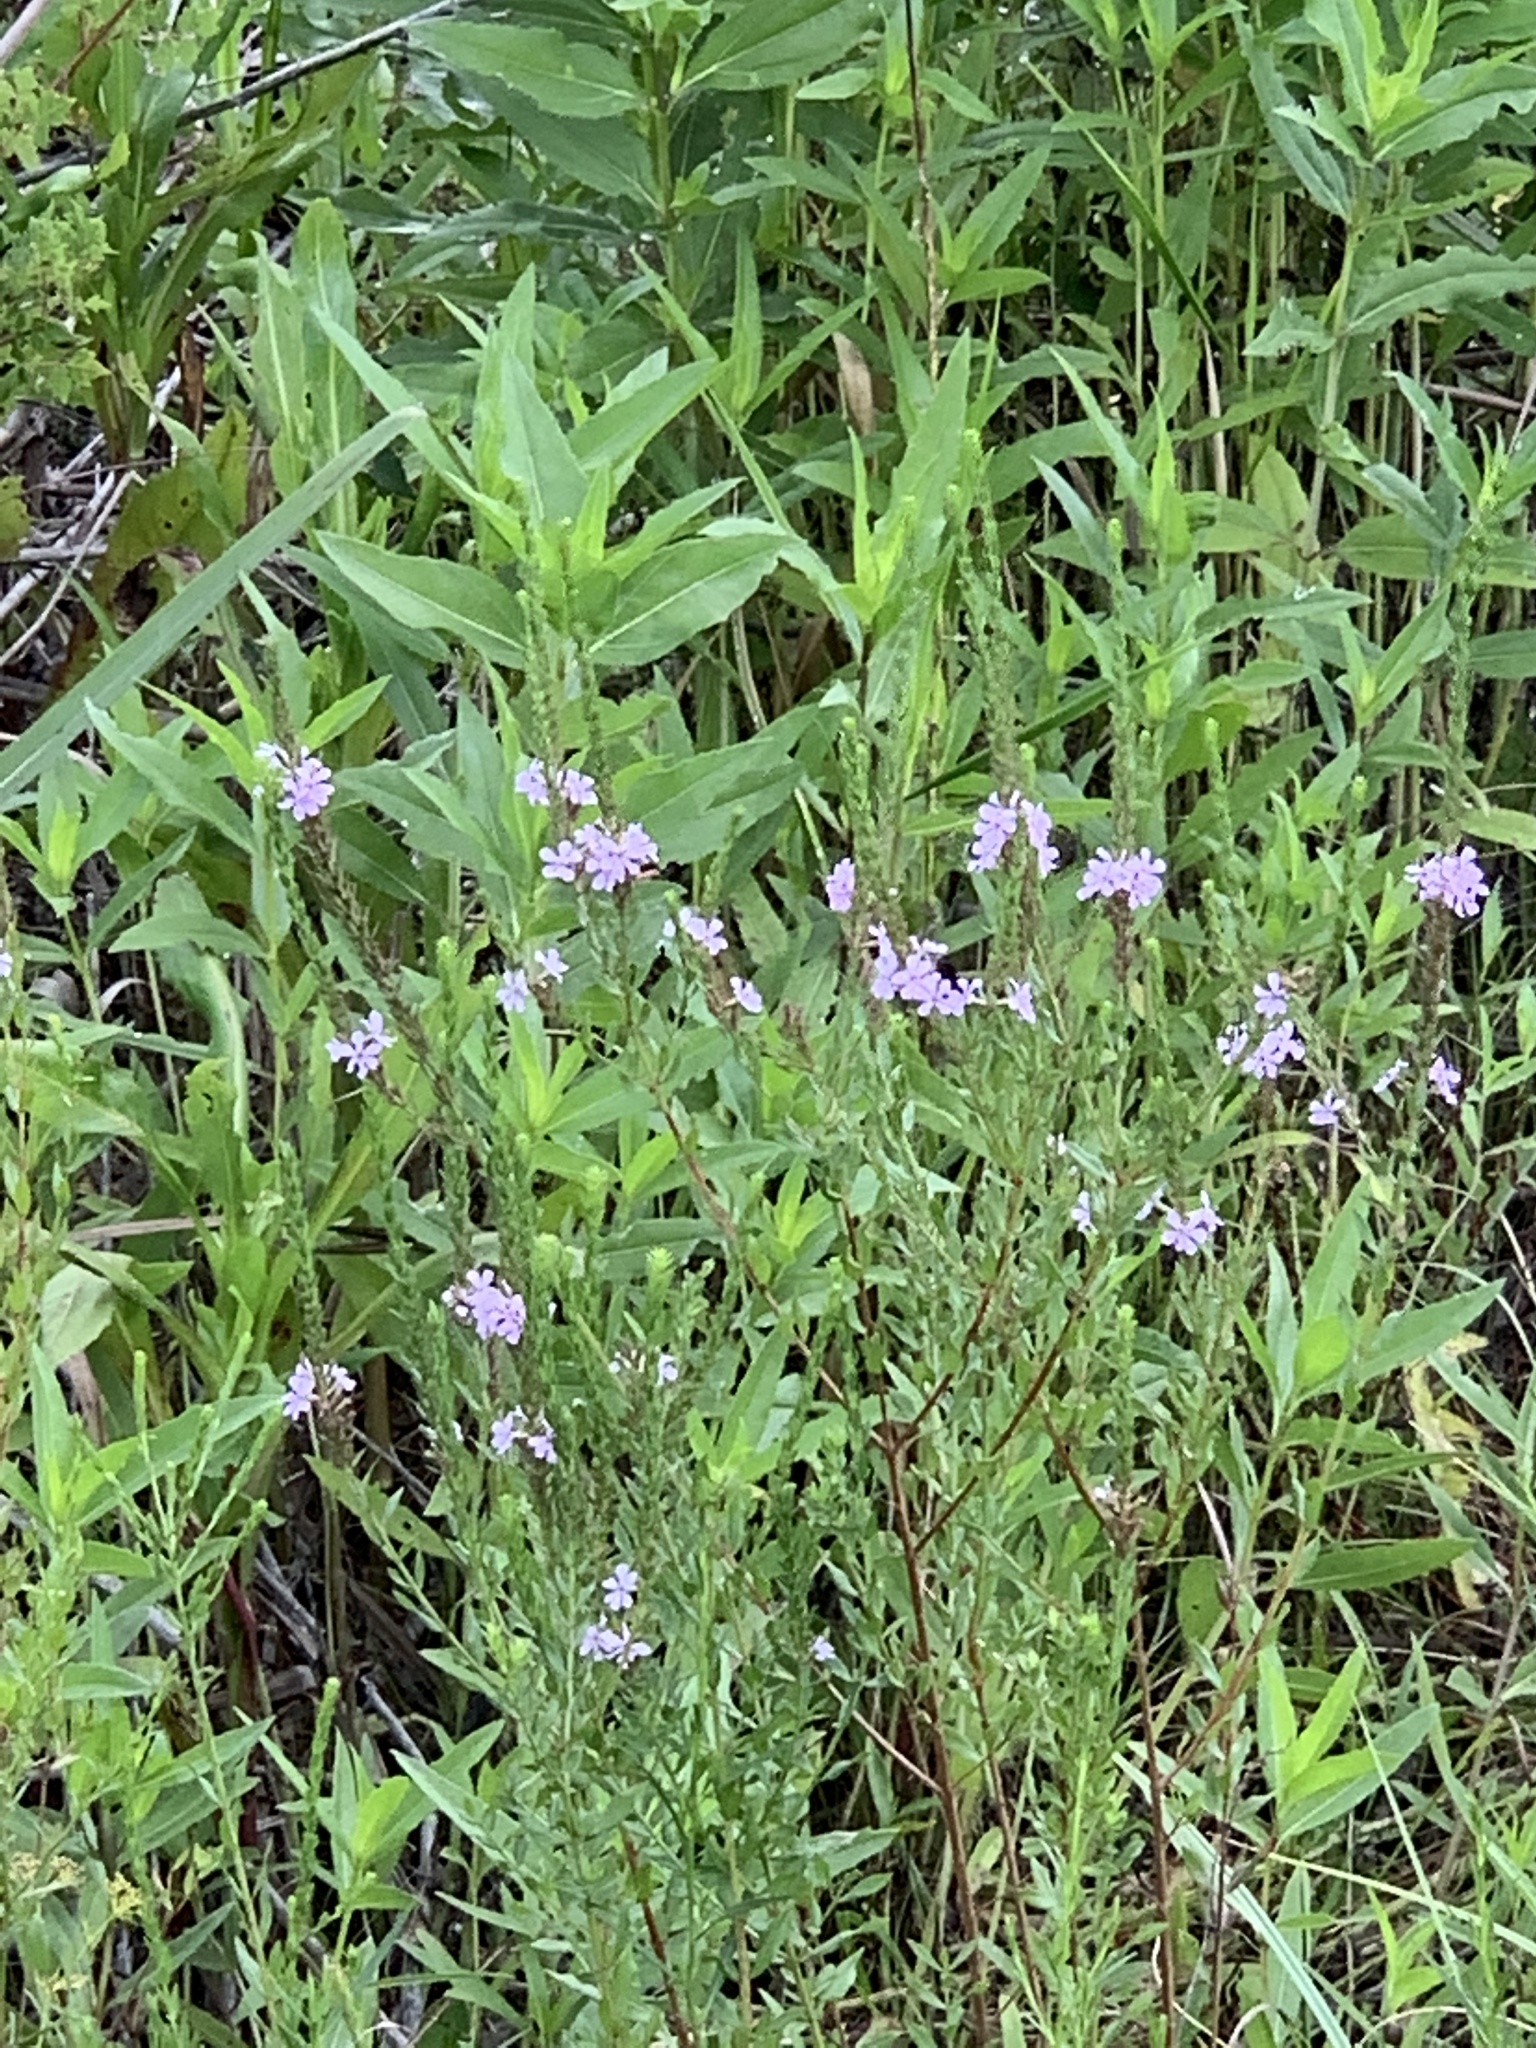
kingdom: Plantae
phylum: Tracheophyta
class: Magnoliopsida
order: Myrtales
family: Lythraceae
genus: Lythrum
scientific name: Lythrum alatum
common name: Winged loosestrife
